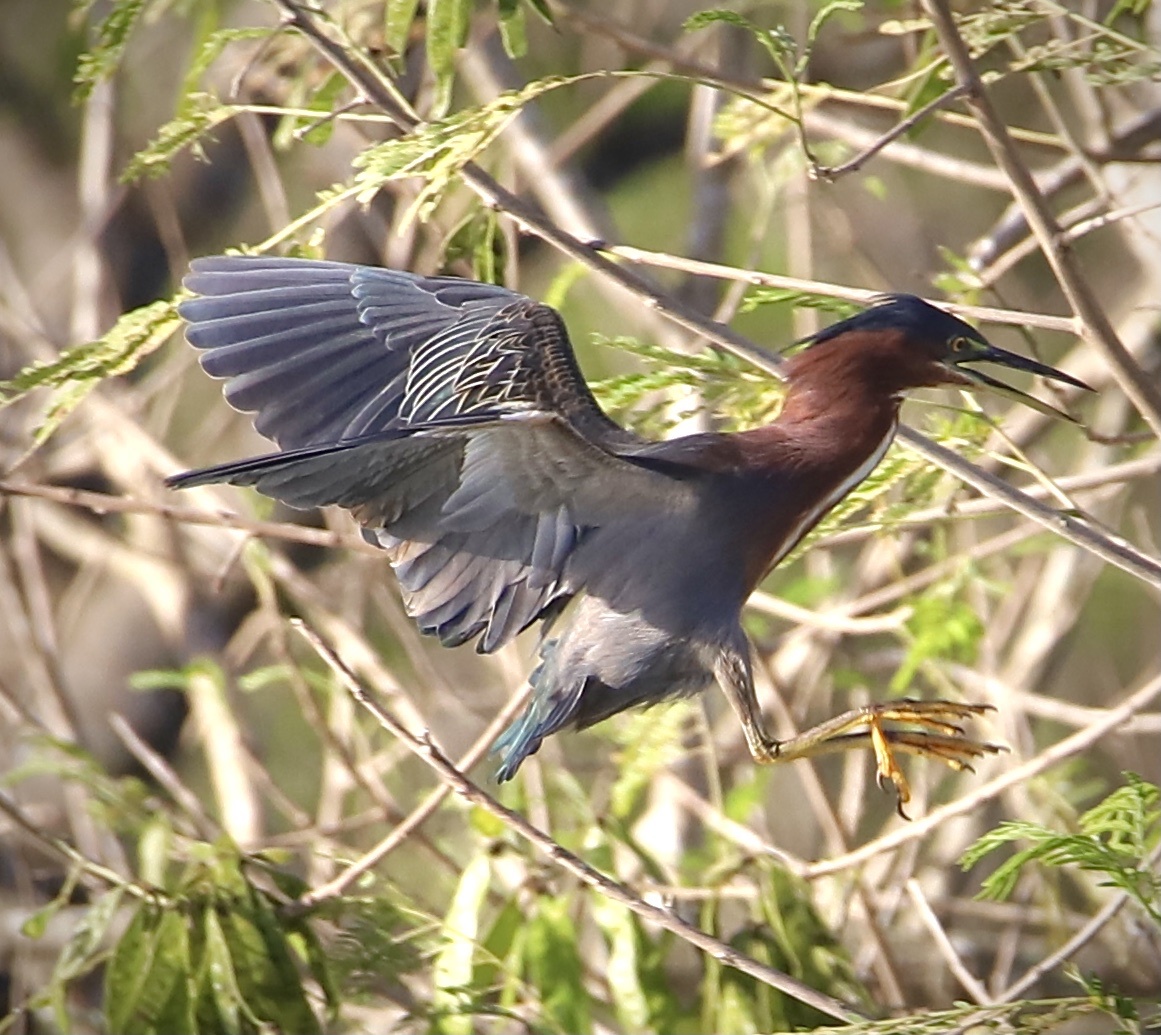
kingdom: Animalia
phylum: Chordata
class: Aves
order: Pelecaniformes
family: Ardeidae
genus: Butorides
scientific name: Butorides virescens
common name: Green heron
